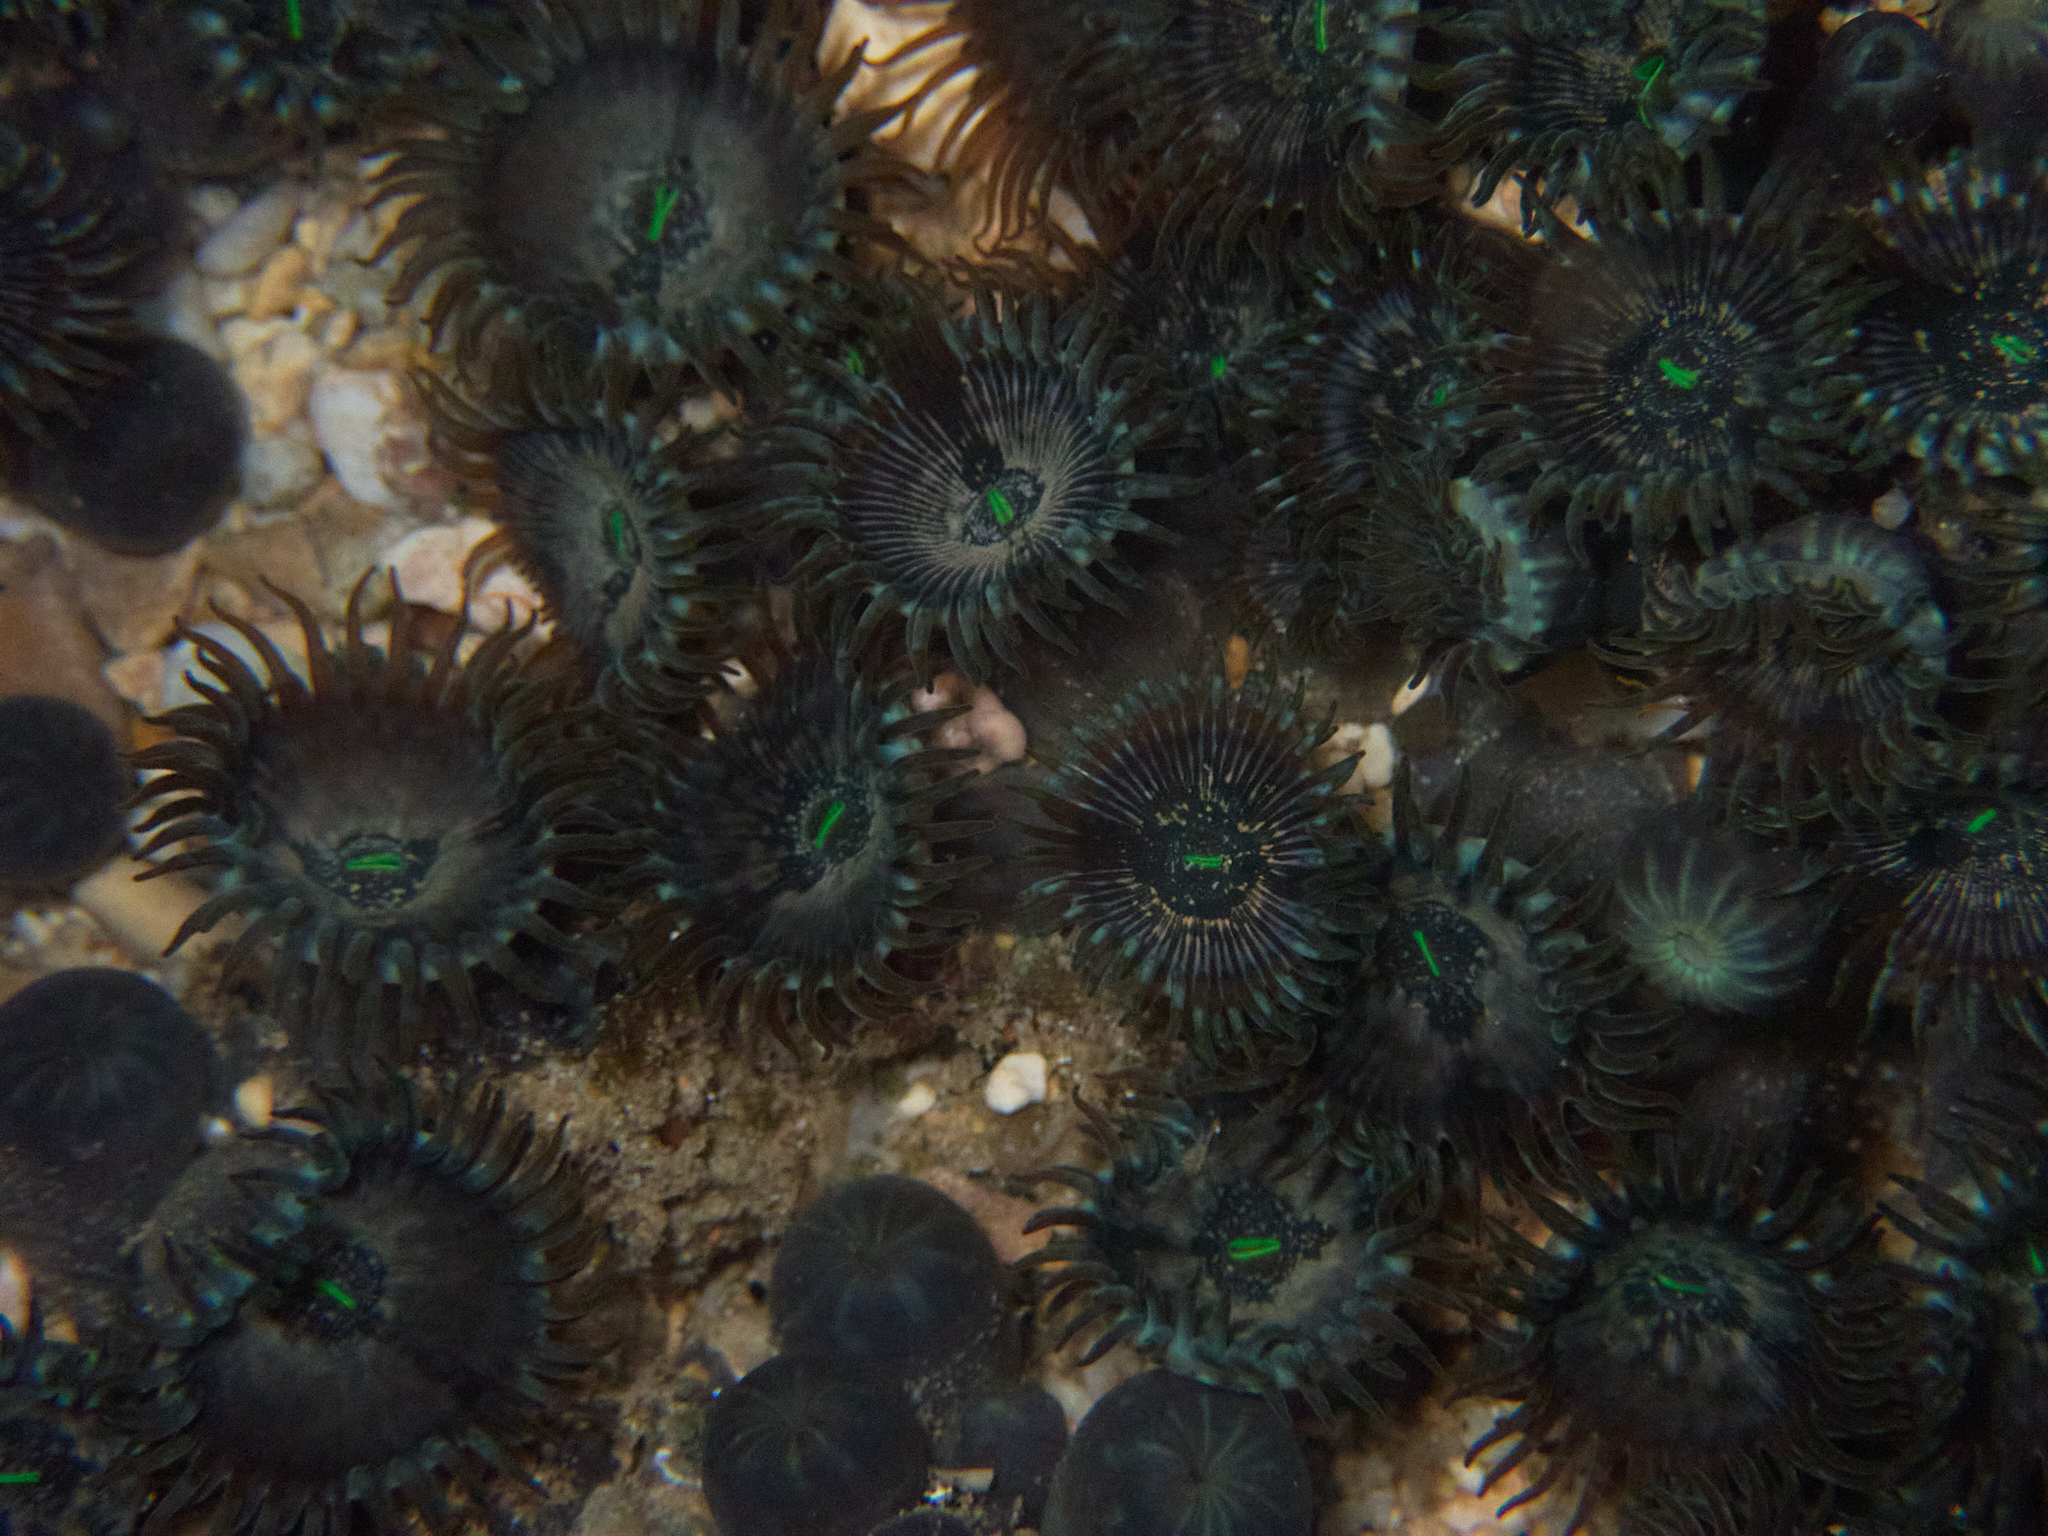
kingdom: Animalia
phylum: Cnidaria
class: Anthozoa
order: Zoantharia
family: Zoanthidae
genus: Zoanthus
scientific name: Zoanthus gigantus
